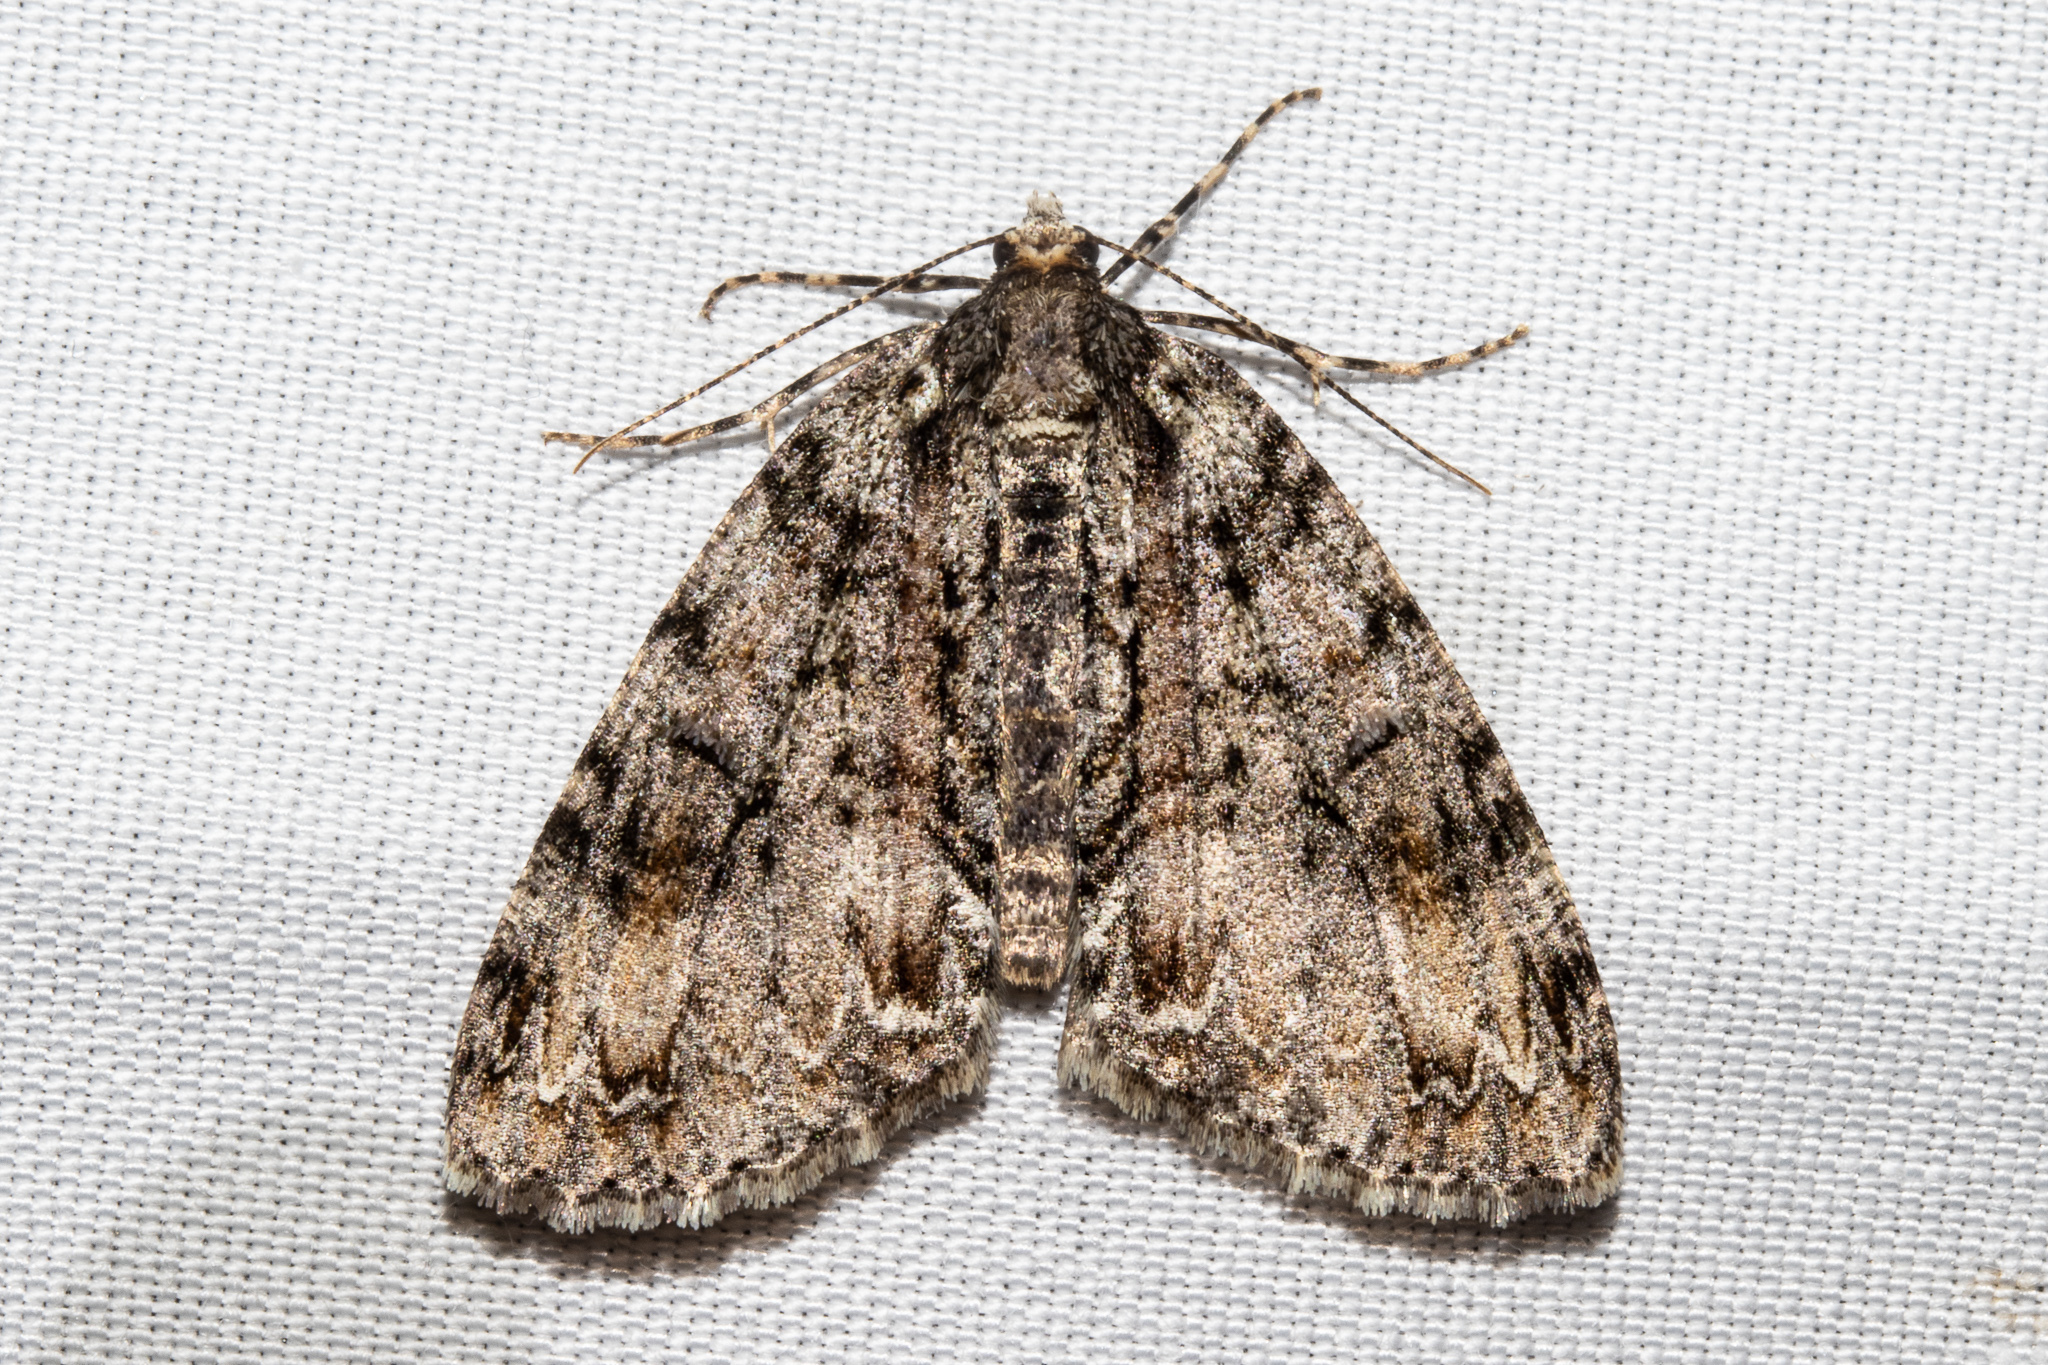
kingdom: Animalia
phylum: Arthropoda
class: Insecta
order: Lepidoptera
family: Geometridae
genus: Pseudocoremia
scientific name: Pseudocoremia suavis
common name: Common forest looper
